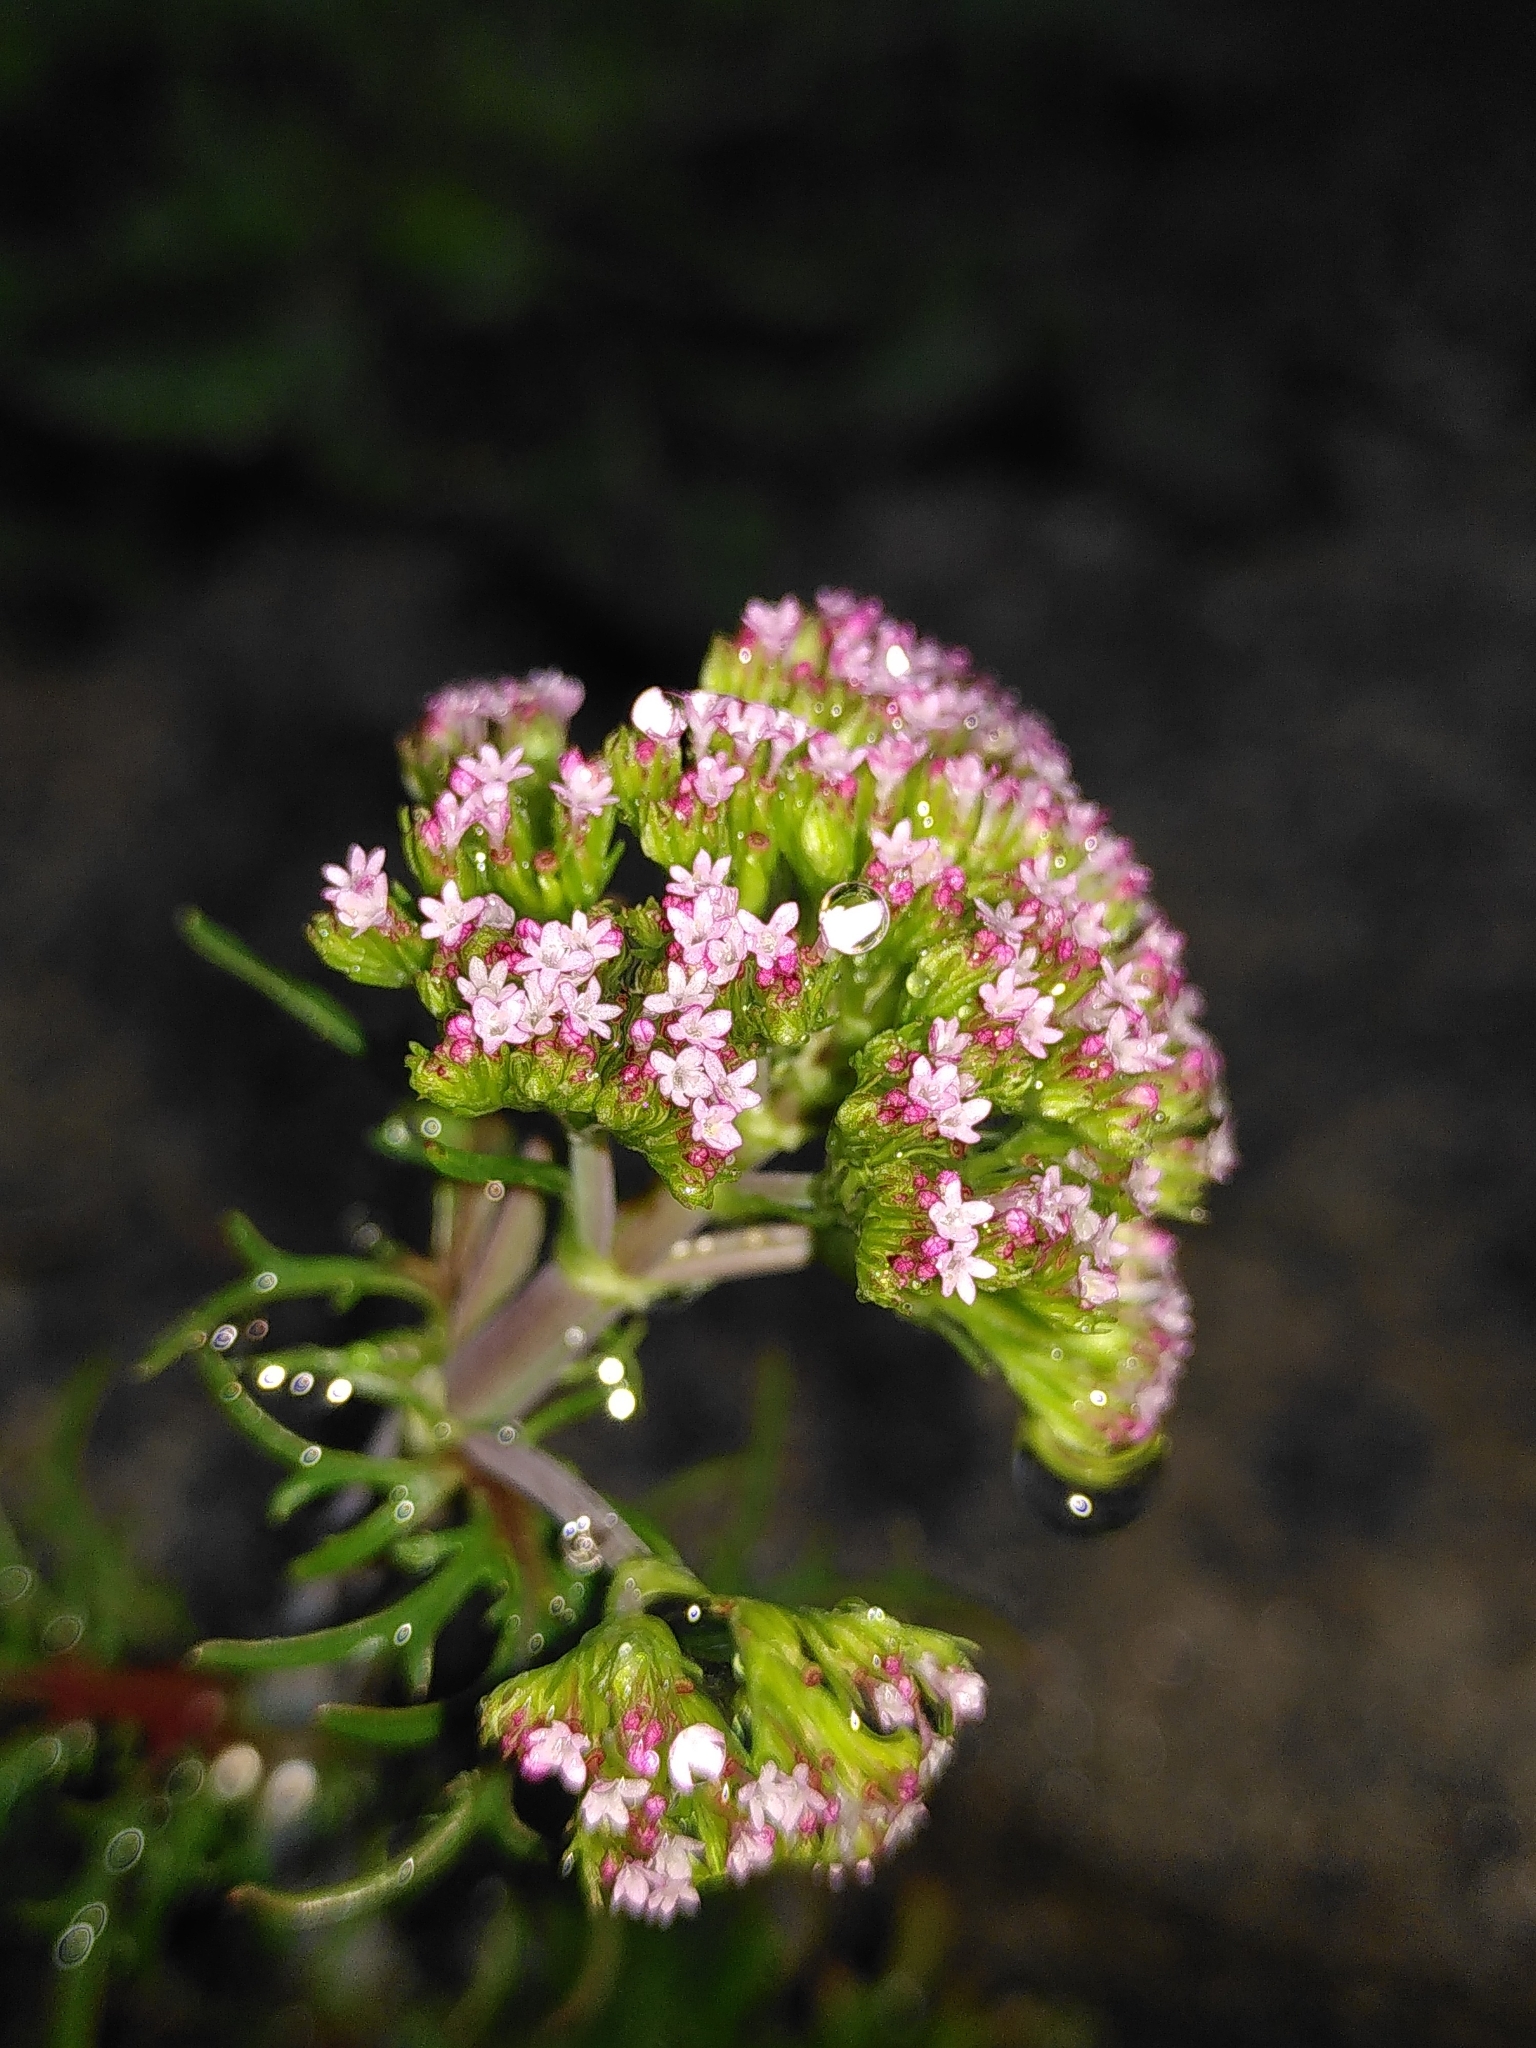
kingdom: Plantae
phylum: Tracheophyta
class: Magnoliopsida
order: Dipsacales
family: Caprifoliaceae
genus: Centranthus
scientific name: Centranthus calcitrapae
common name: Annual valerian
